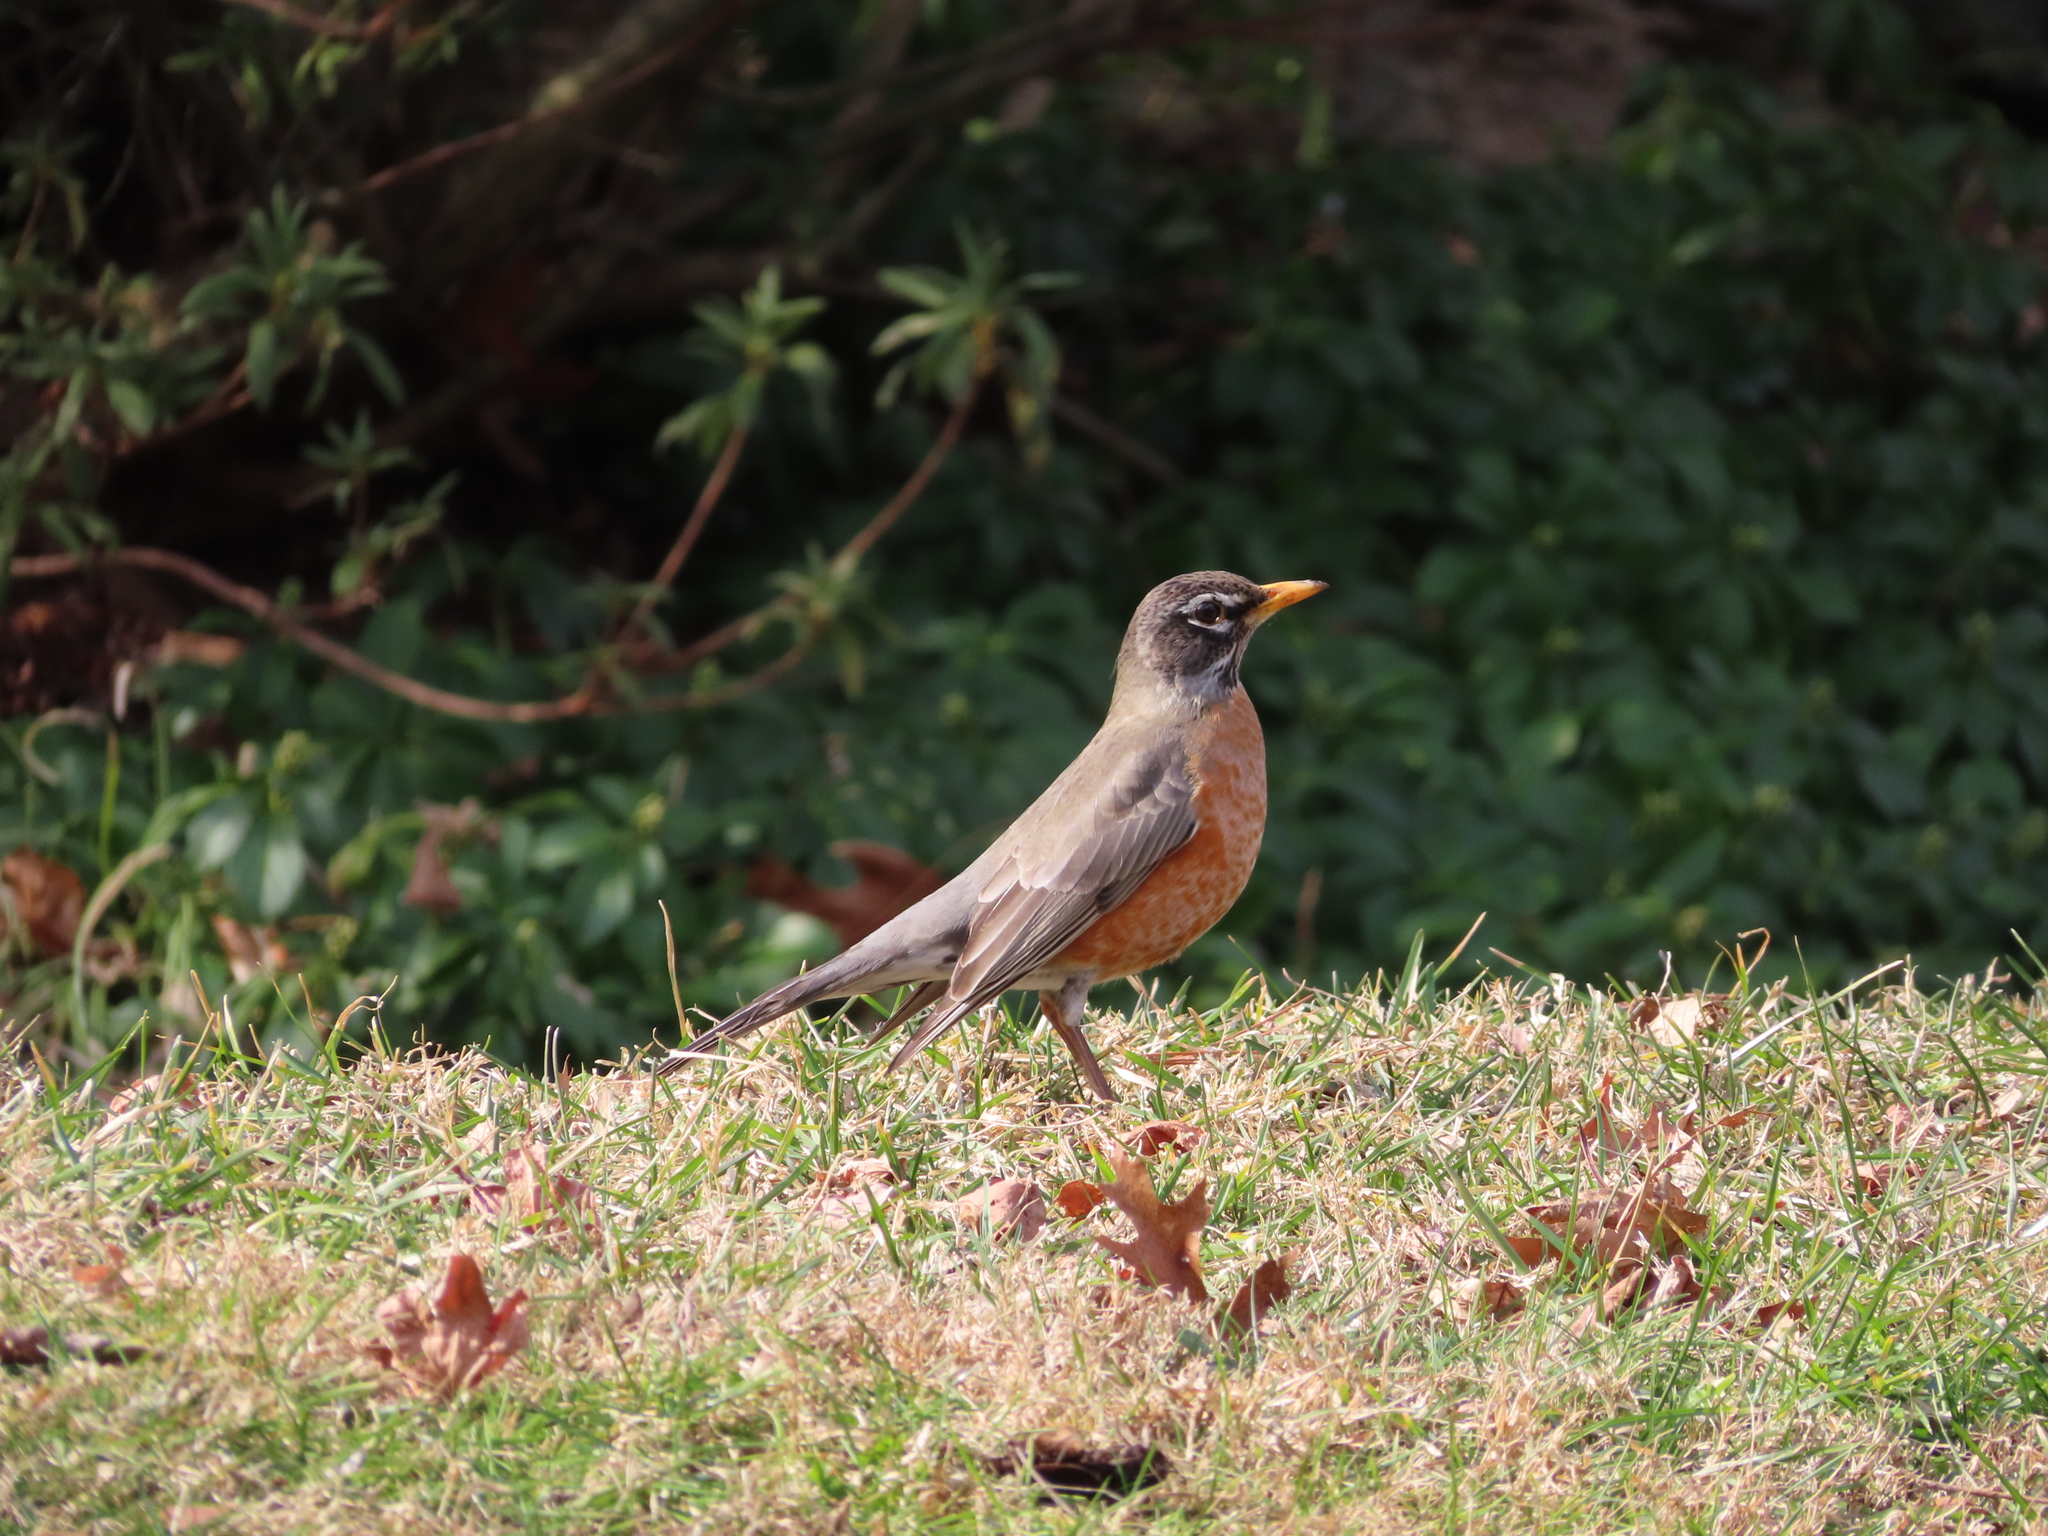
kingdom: Animalia
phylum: Chordata
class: Aves
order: Passeriformes
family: Turdidae
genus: Turdus
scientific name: Turdus migratorius
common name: American robin
